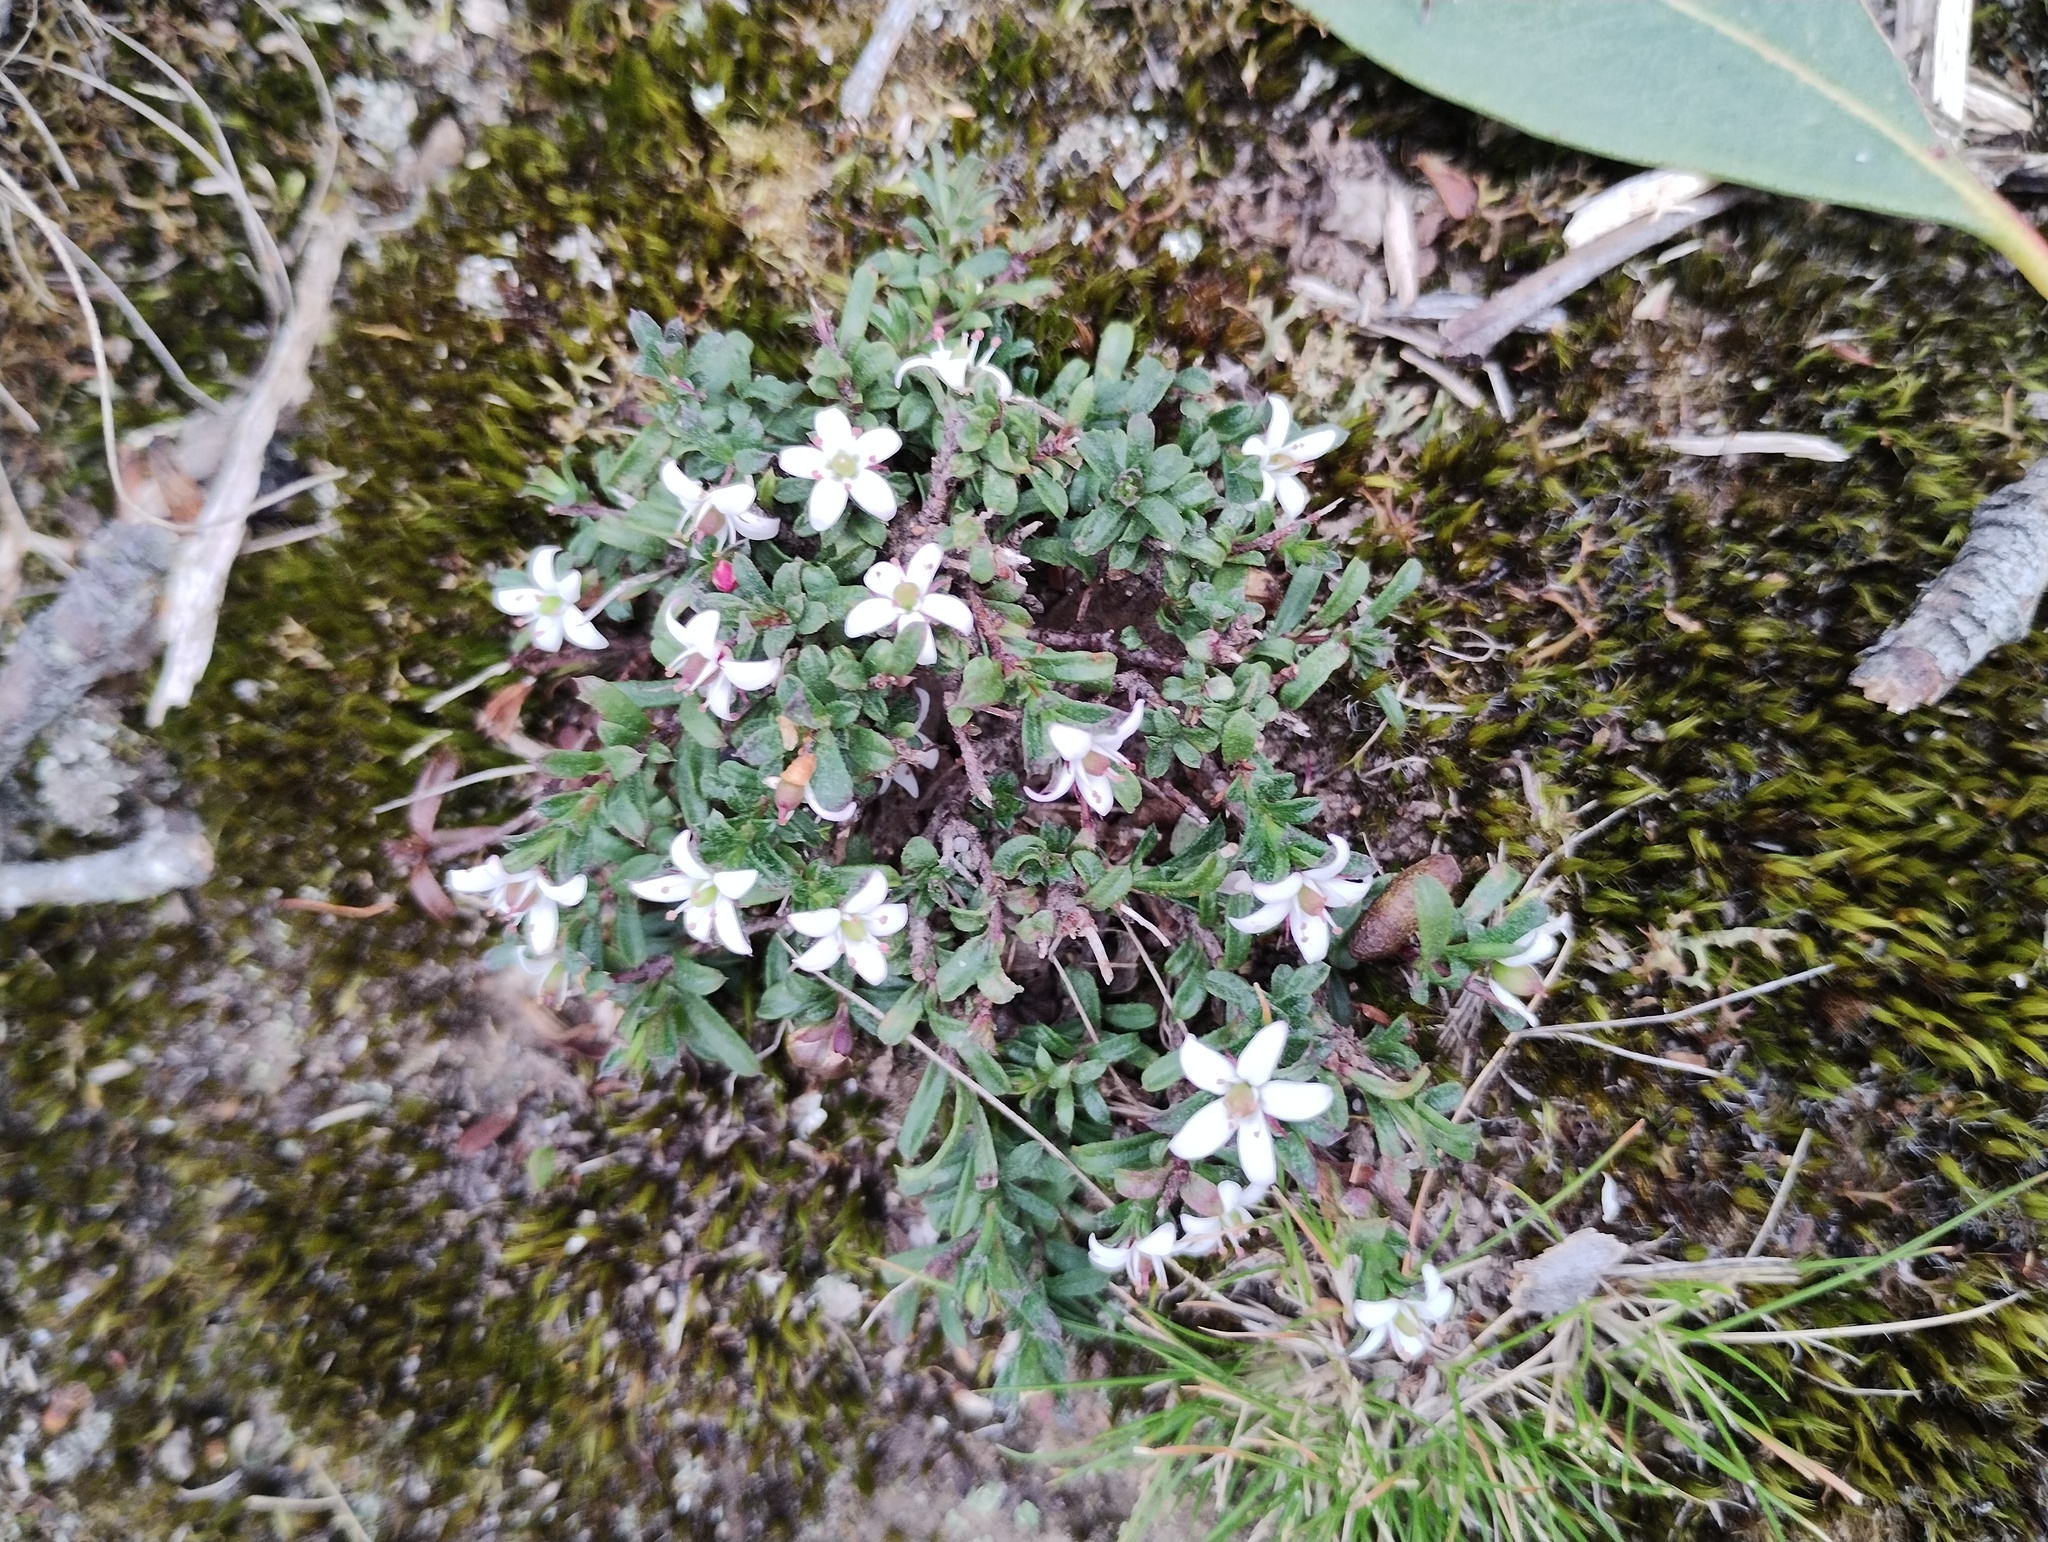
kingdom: Plantae
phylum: Tracheophyta
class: Magnoliopsida
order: Apiales
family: Pittosporaceae
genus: Rhytidosporum
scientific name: Rhytidosporum procumbens
